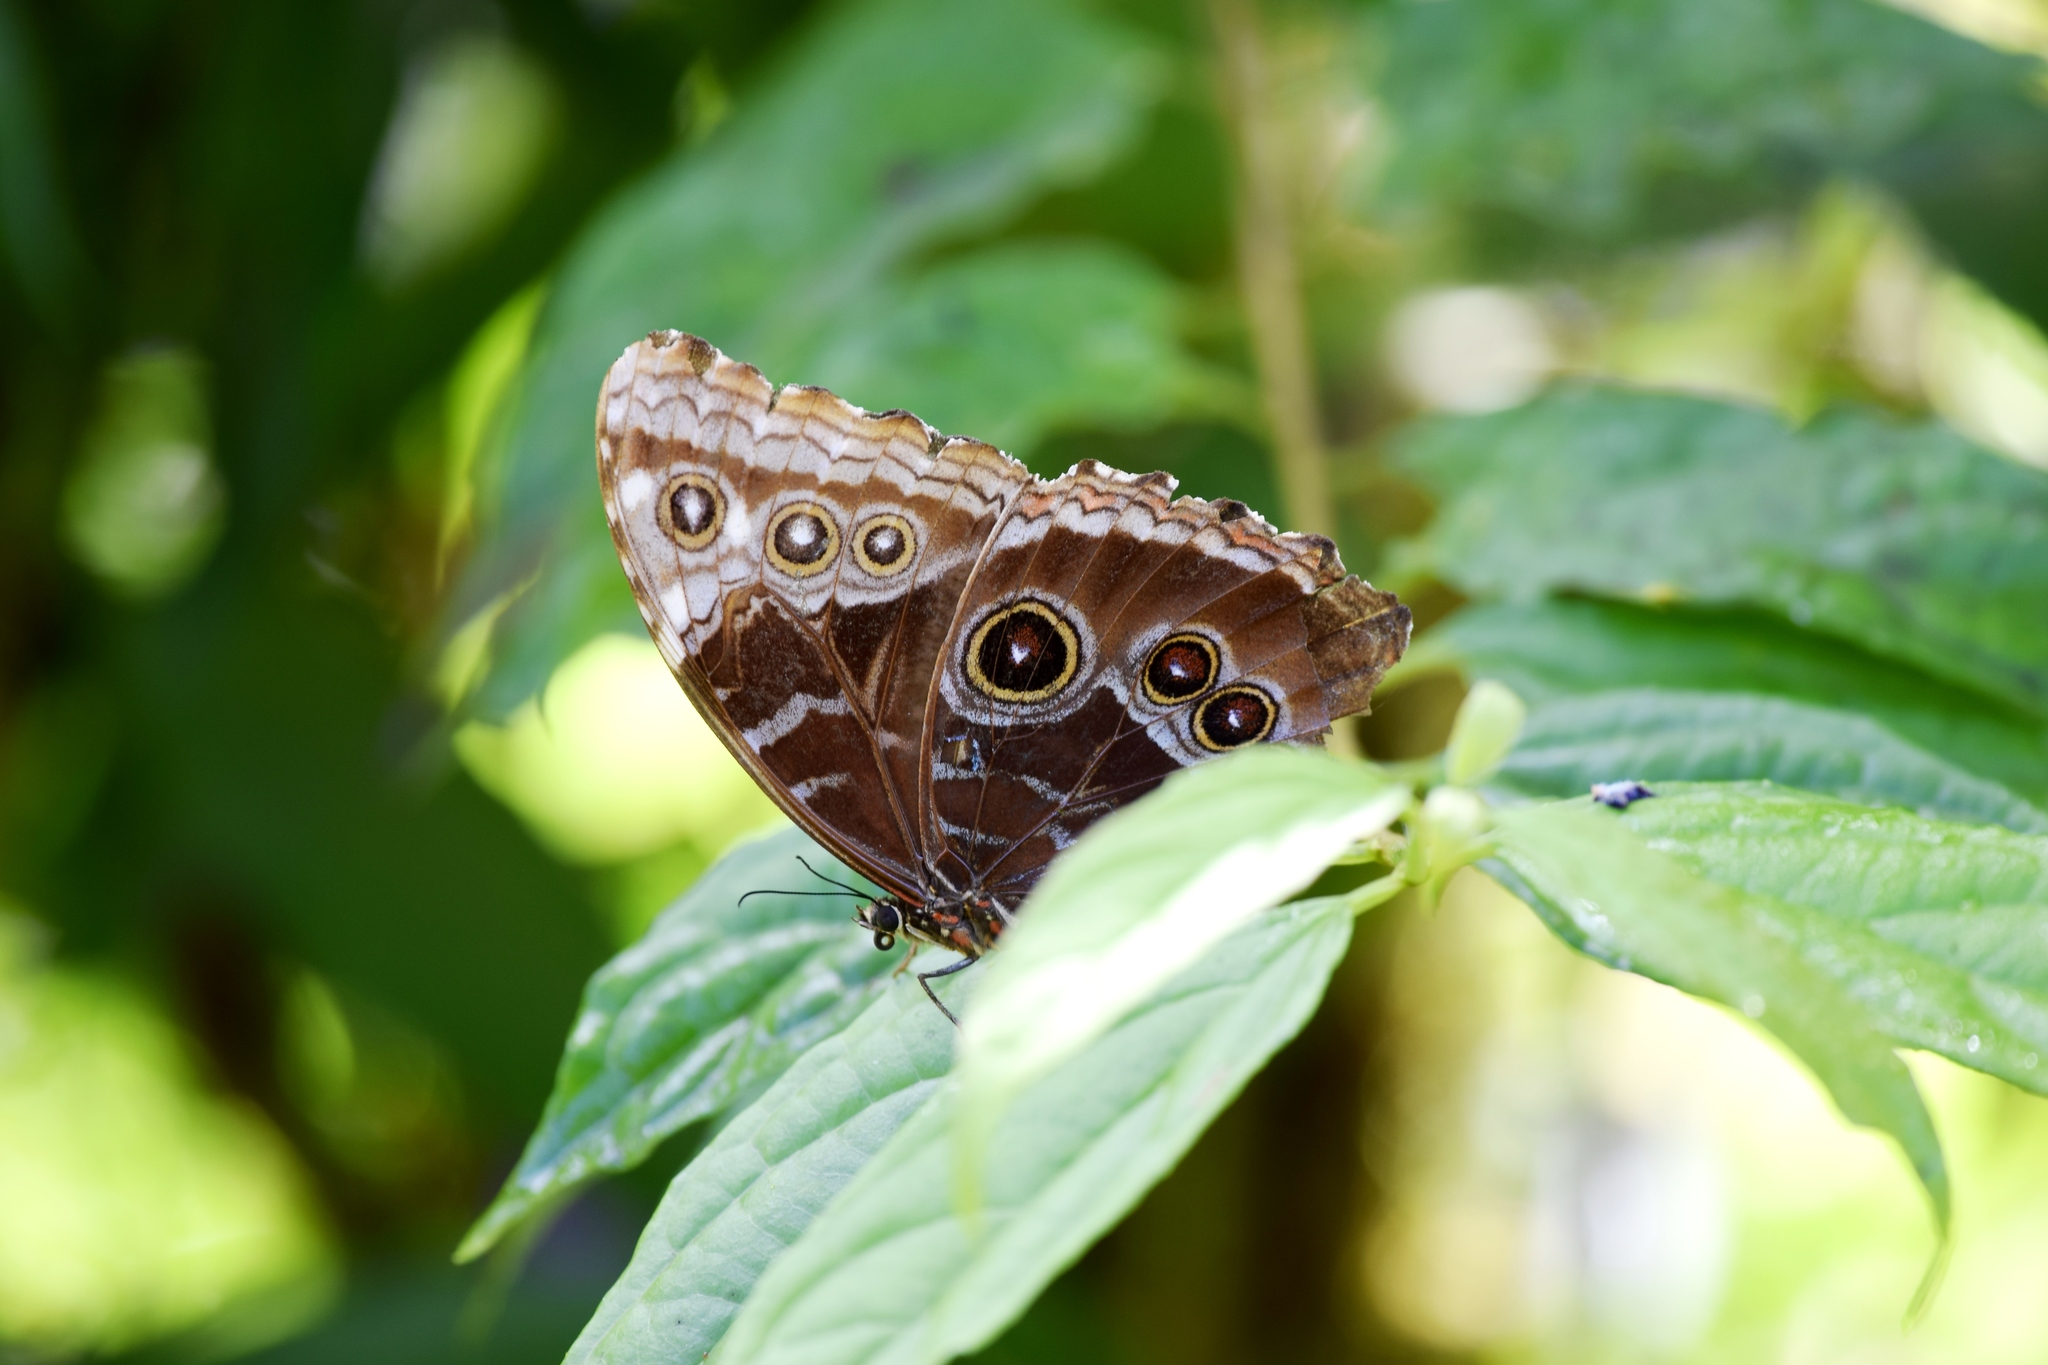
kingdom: Animalia
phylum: Arthropoda
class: Insecta
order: Lepidoptera
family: Nymphalidae
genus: Morpho
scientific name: Morpho helenor
